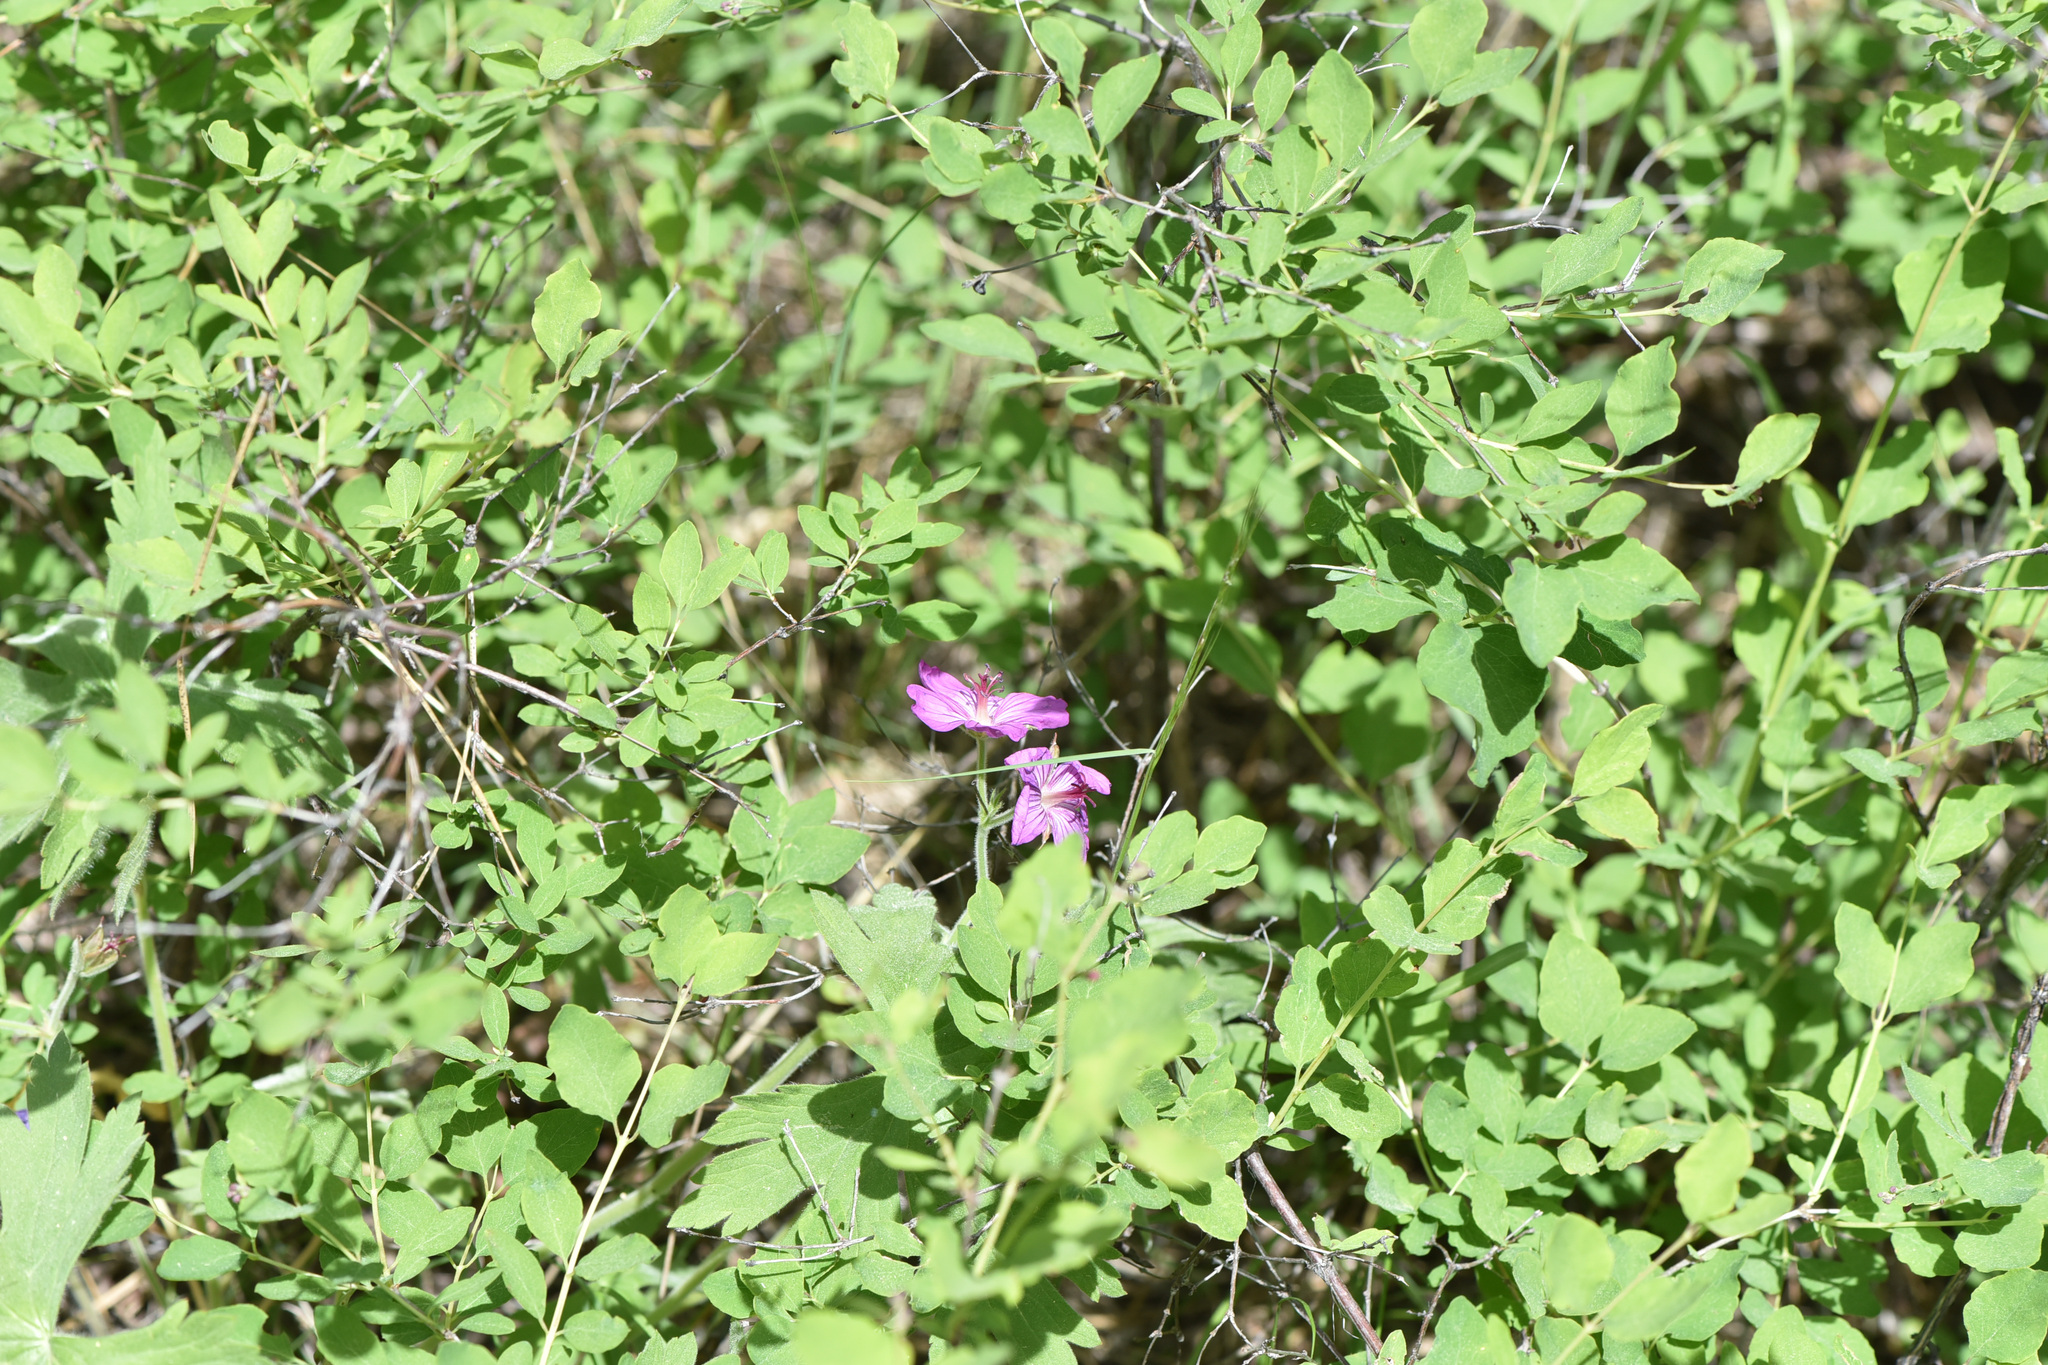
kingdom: Plantae
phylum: Tracheophyta
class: Magnoliopsida
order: Geraniales
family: Geraniaceae
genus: Geranium
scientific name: Geranium viscosissimum
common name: Purple geranium
